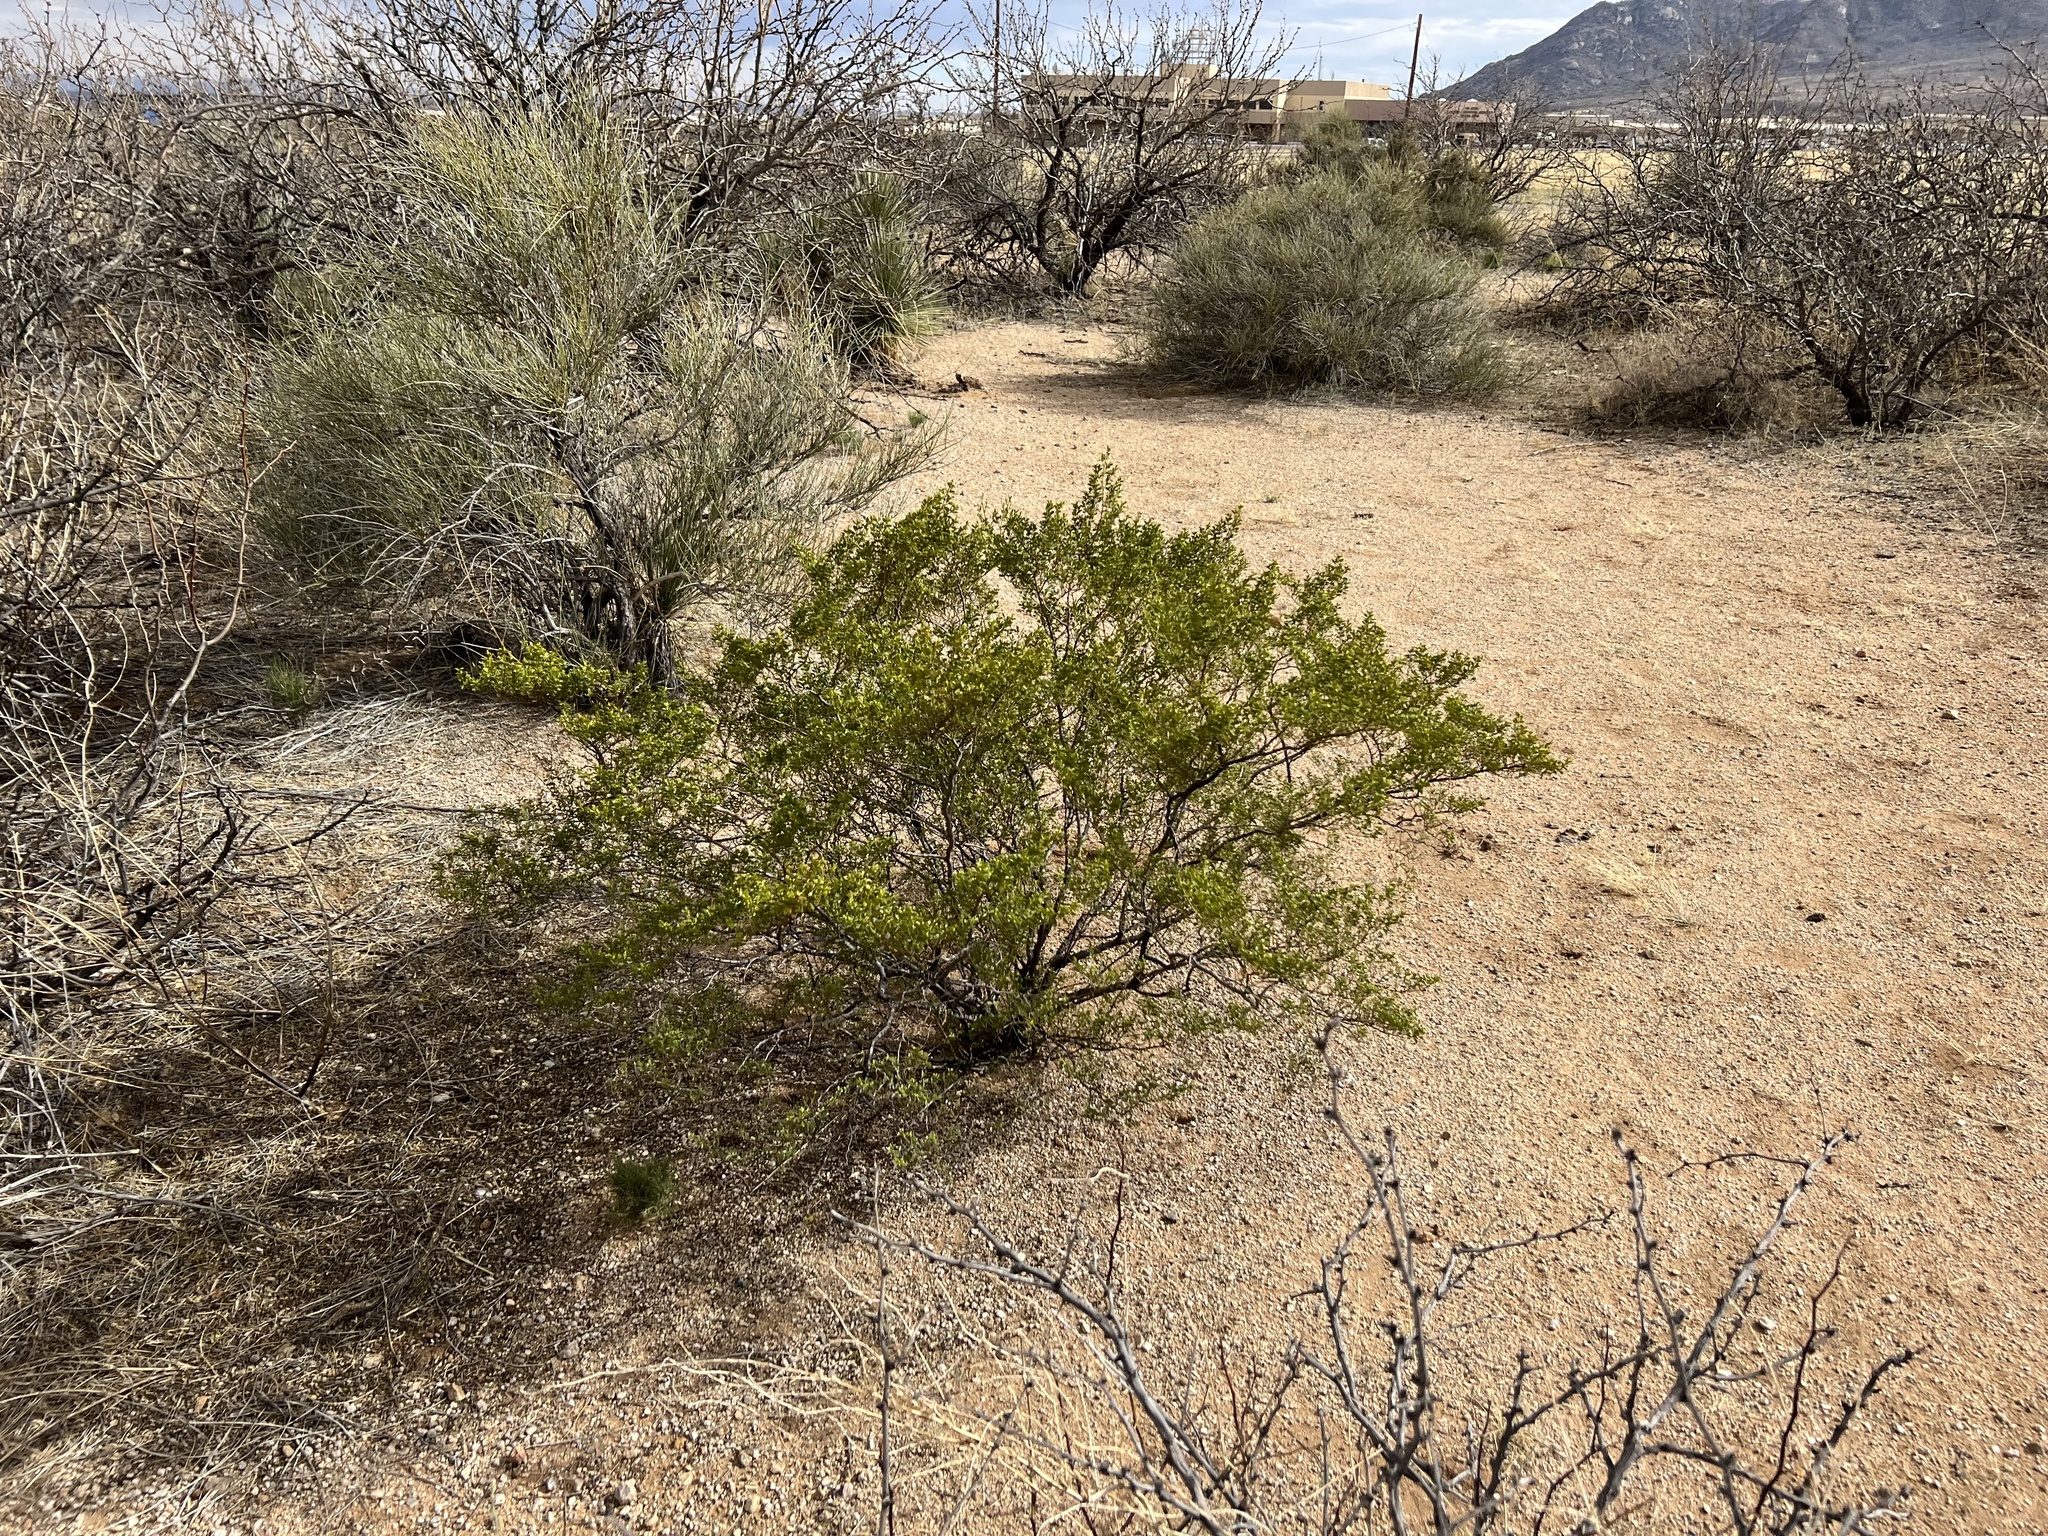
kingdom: Plantae
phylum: Tracheophyta
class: Magnoliopsida
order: Zygophyllales
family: Zygophyllaceae
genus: Larrea
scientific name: Larrea tridentata
